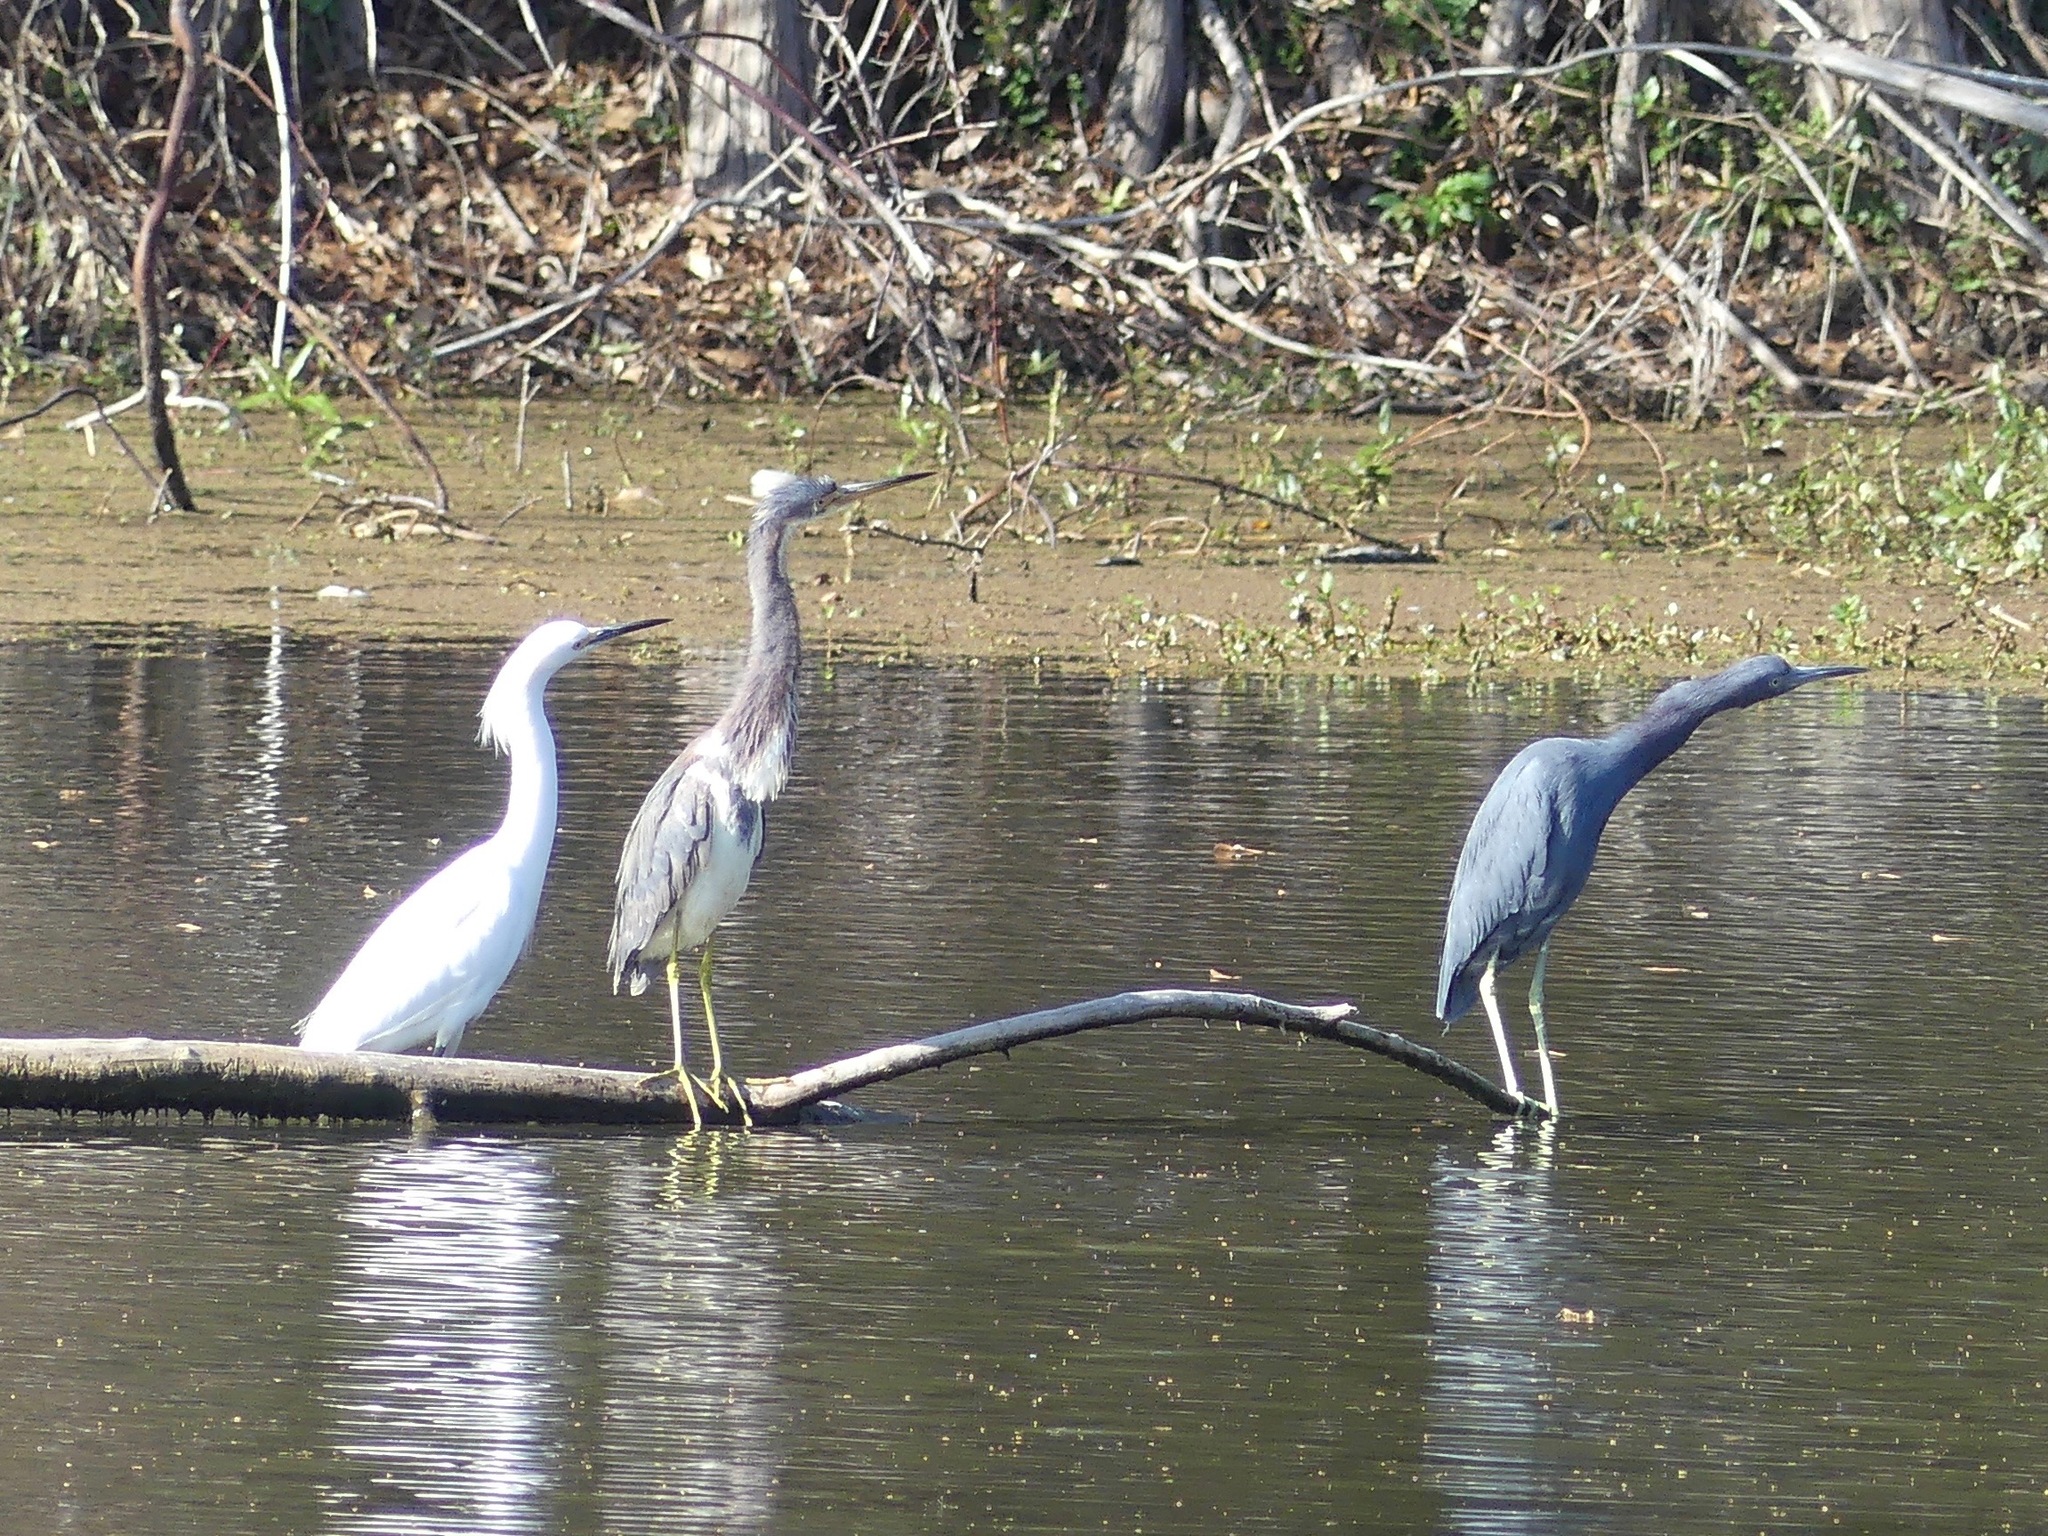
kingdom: Animalia
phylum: Chordata
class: Aves
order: Pelecaniformes
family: Ardeidae
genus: Egretta
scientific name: Egretta tricolor
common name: Tricolored heron
